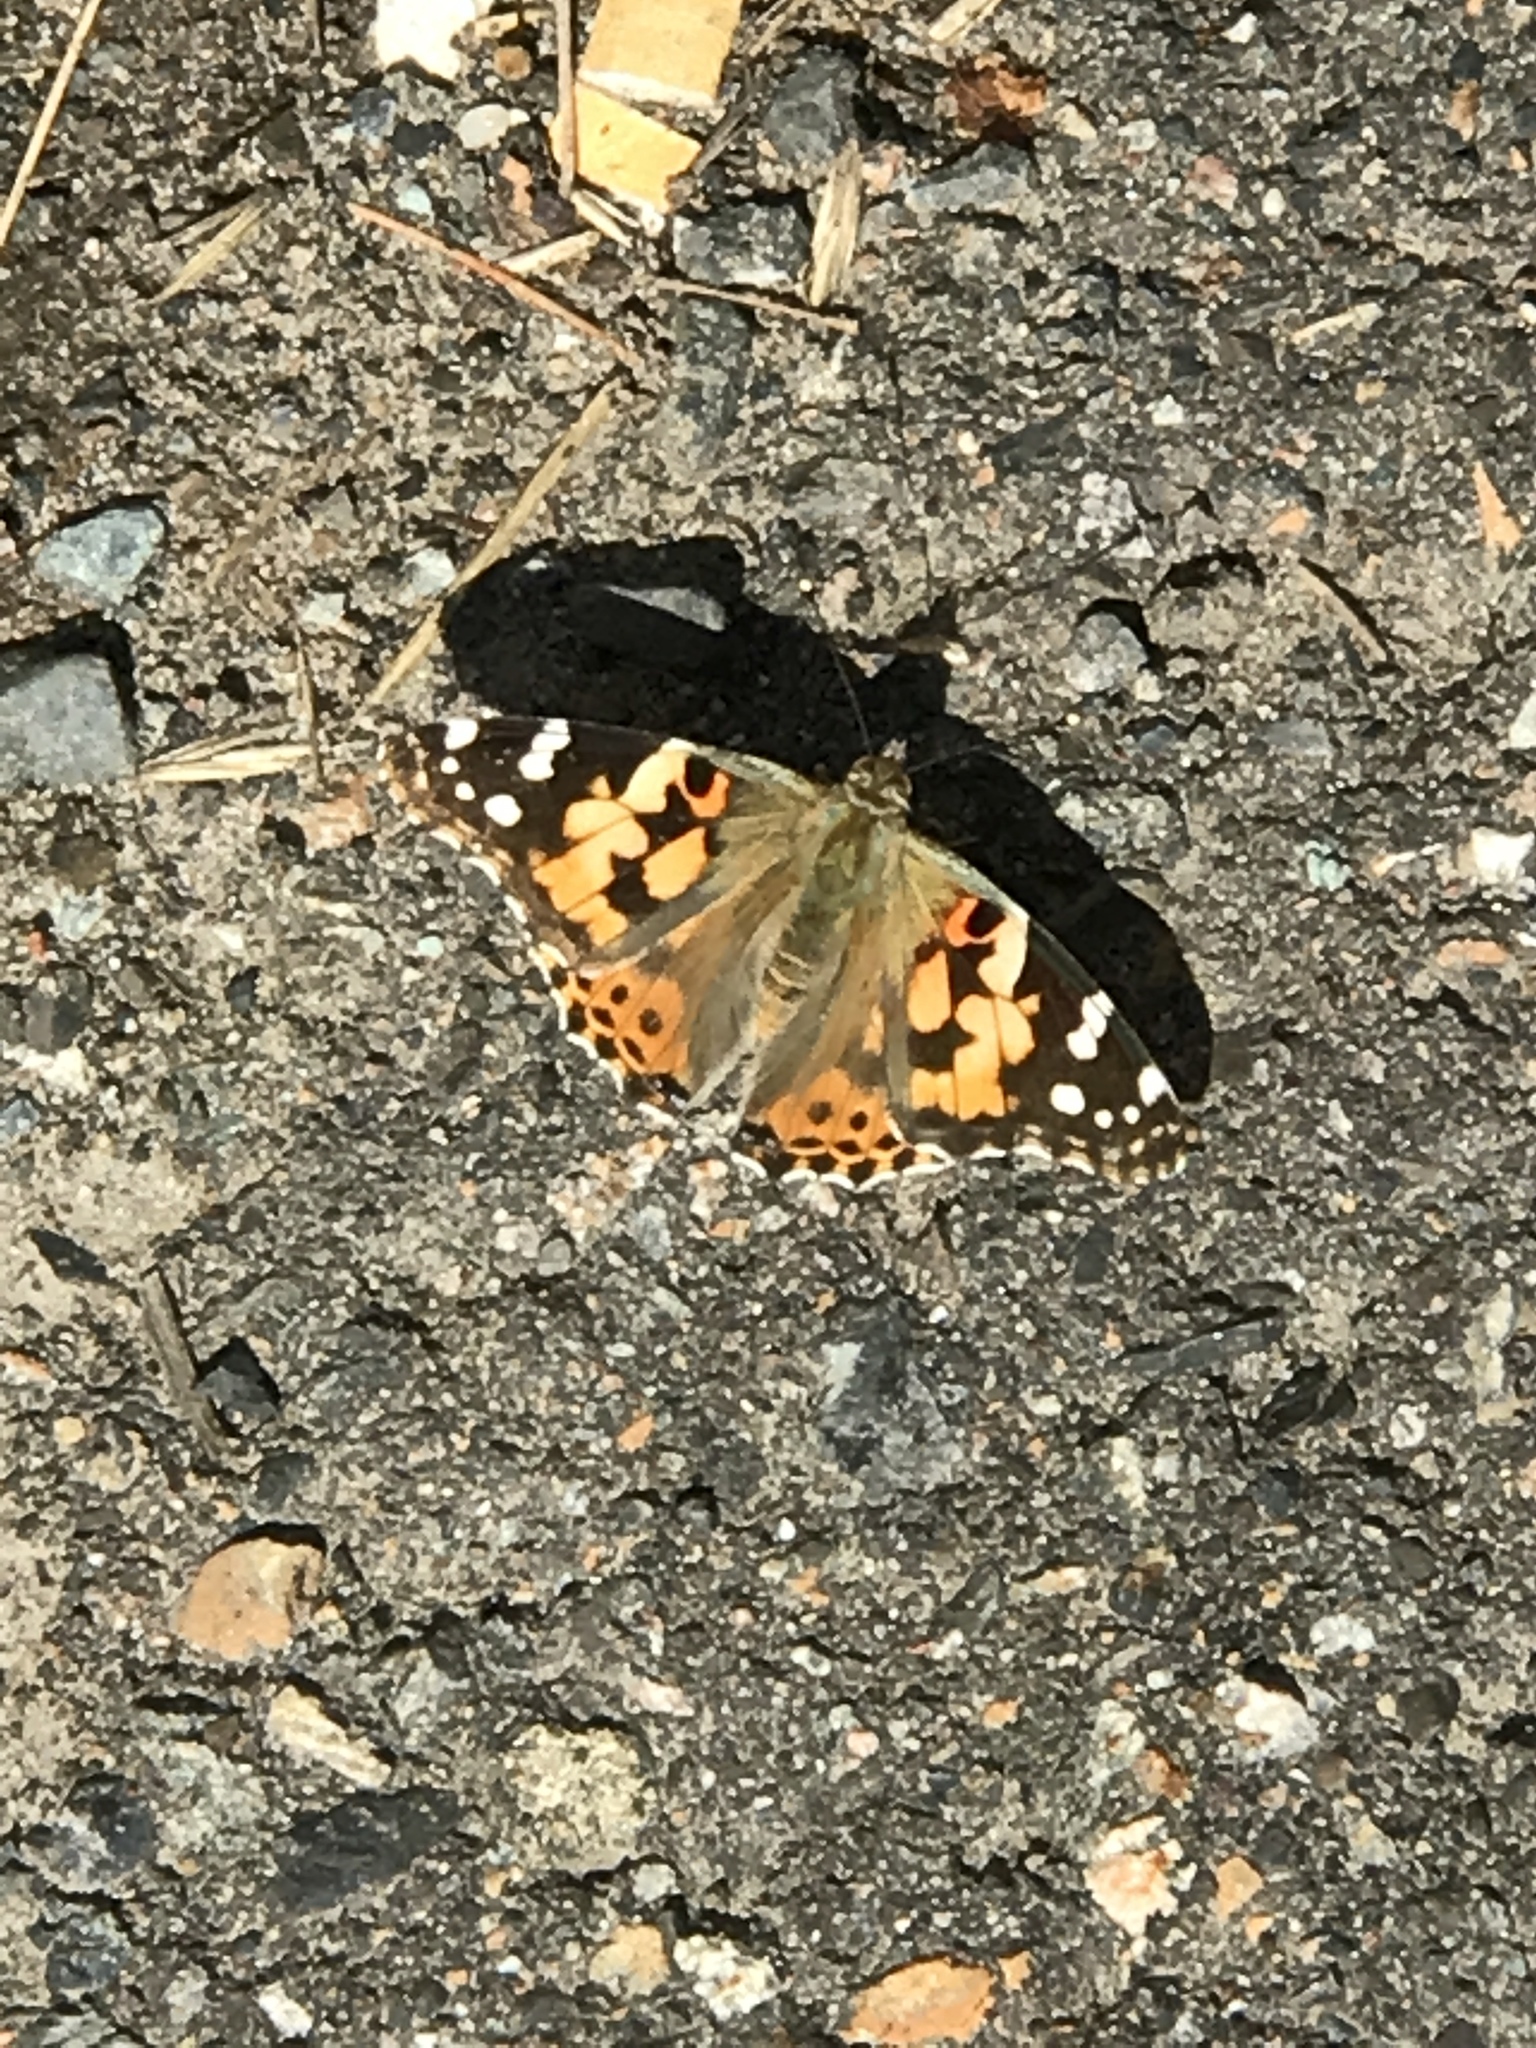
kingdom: Animalia
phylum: Arthropoda
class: Insecta
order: Lepidoptera
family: Nymphalidae
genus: Vanessa
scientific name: Vanessa cardui
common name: Painted lady
